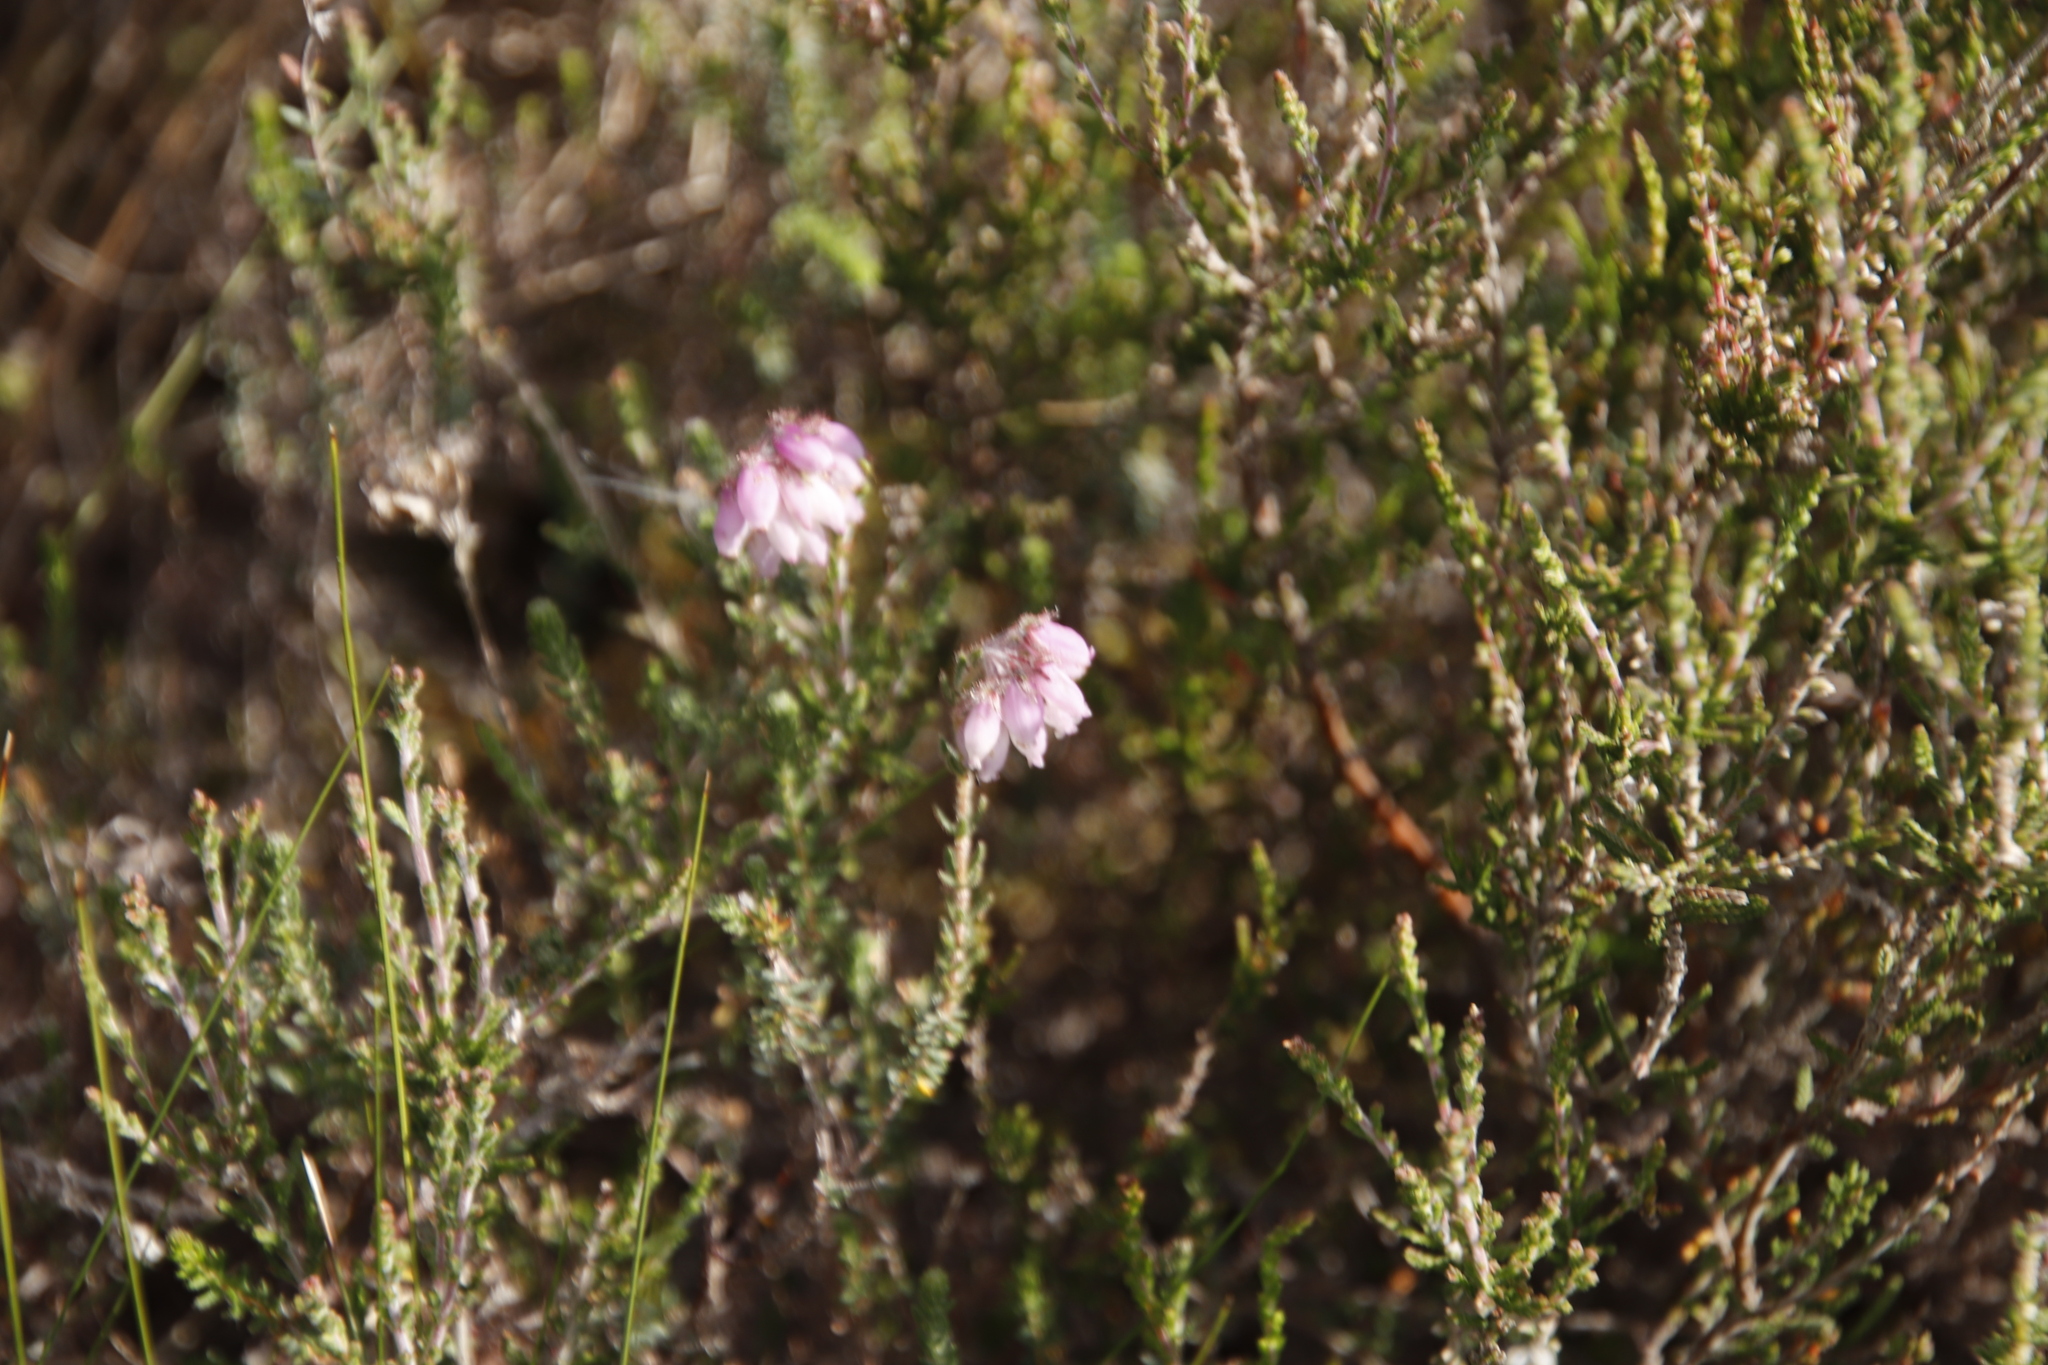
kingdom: Plantae
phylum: Tracheophyta
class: Magnoliopsida
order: Ericales
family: Ericaceae
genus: Erica
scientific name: Erica tetralix
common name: Cross-leaved heath
